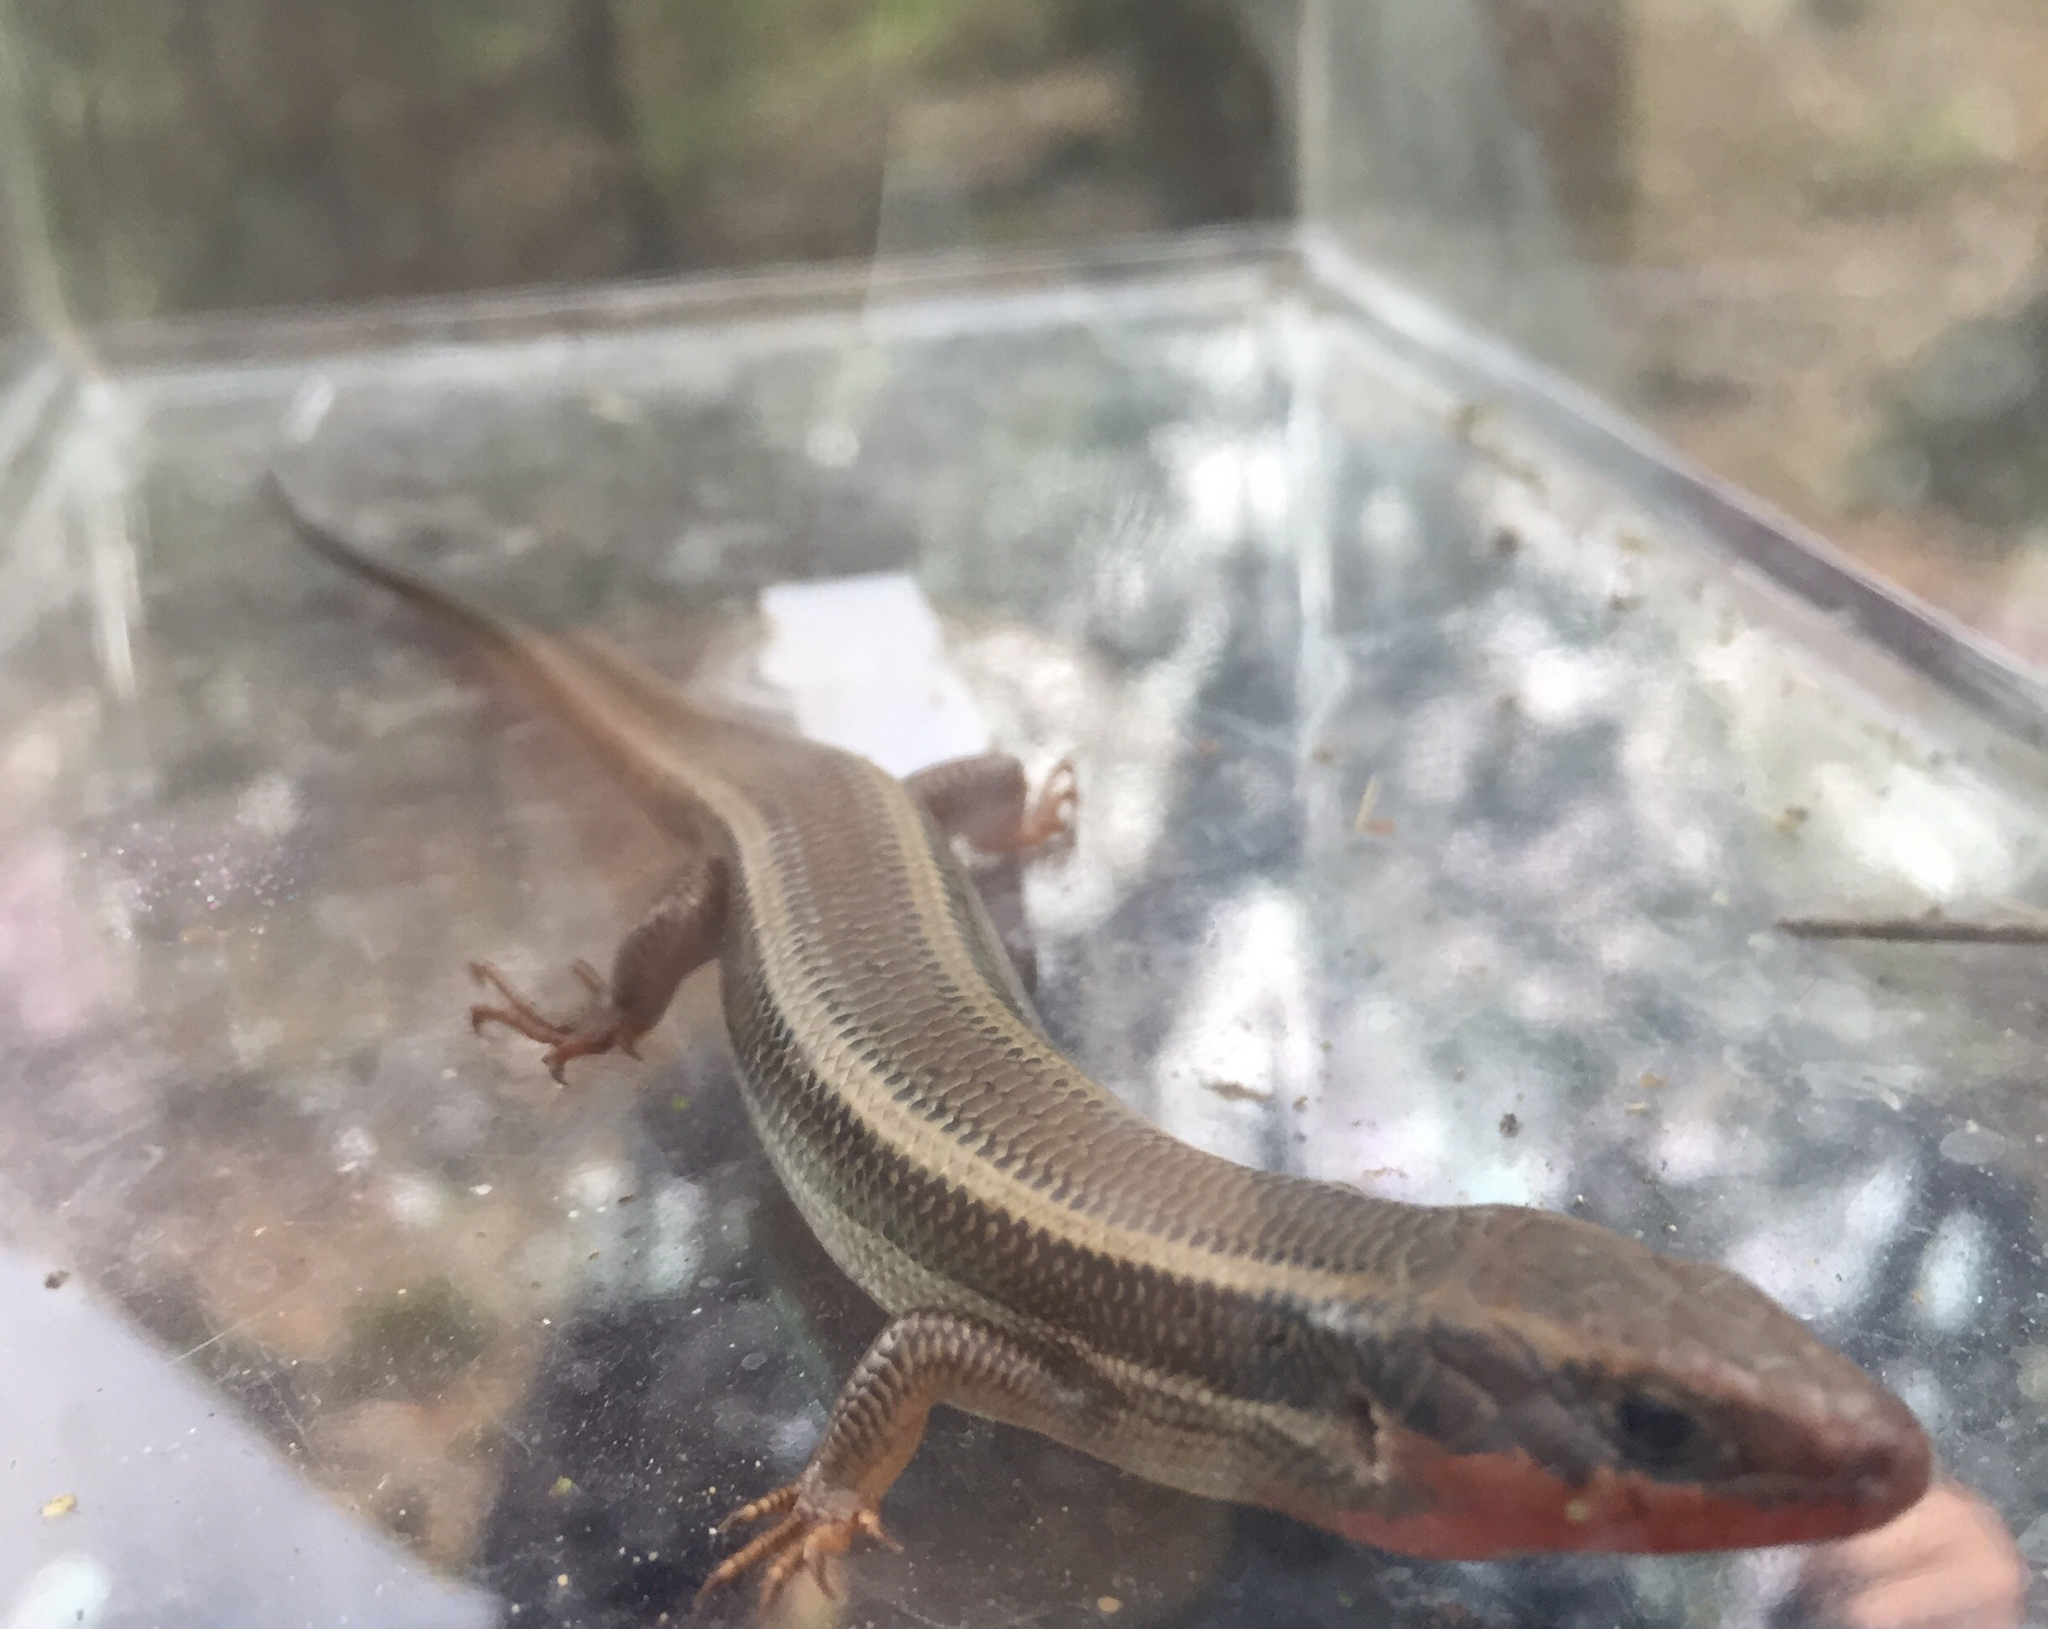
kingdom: Animalia
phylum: Chordata
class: Squamata
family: Scincidae
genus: Plestiodon
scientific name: Plestiodon skiltonianus
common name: Coronado island skink [interparietalis]
